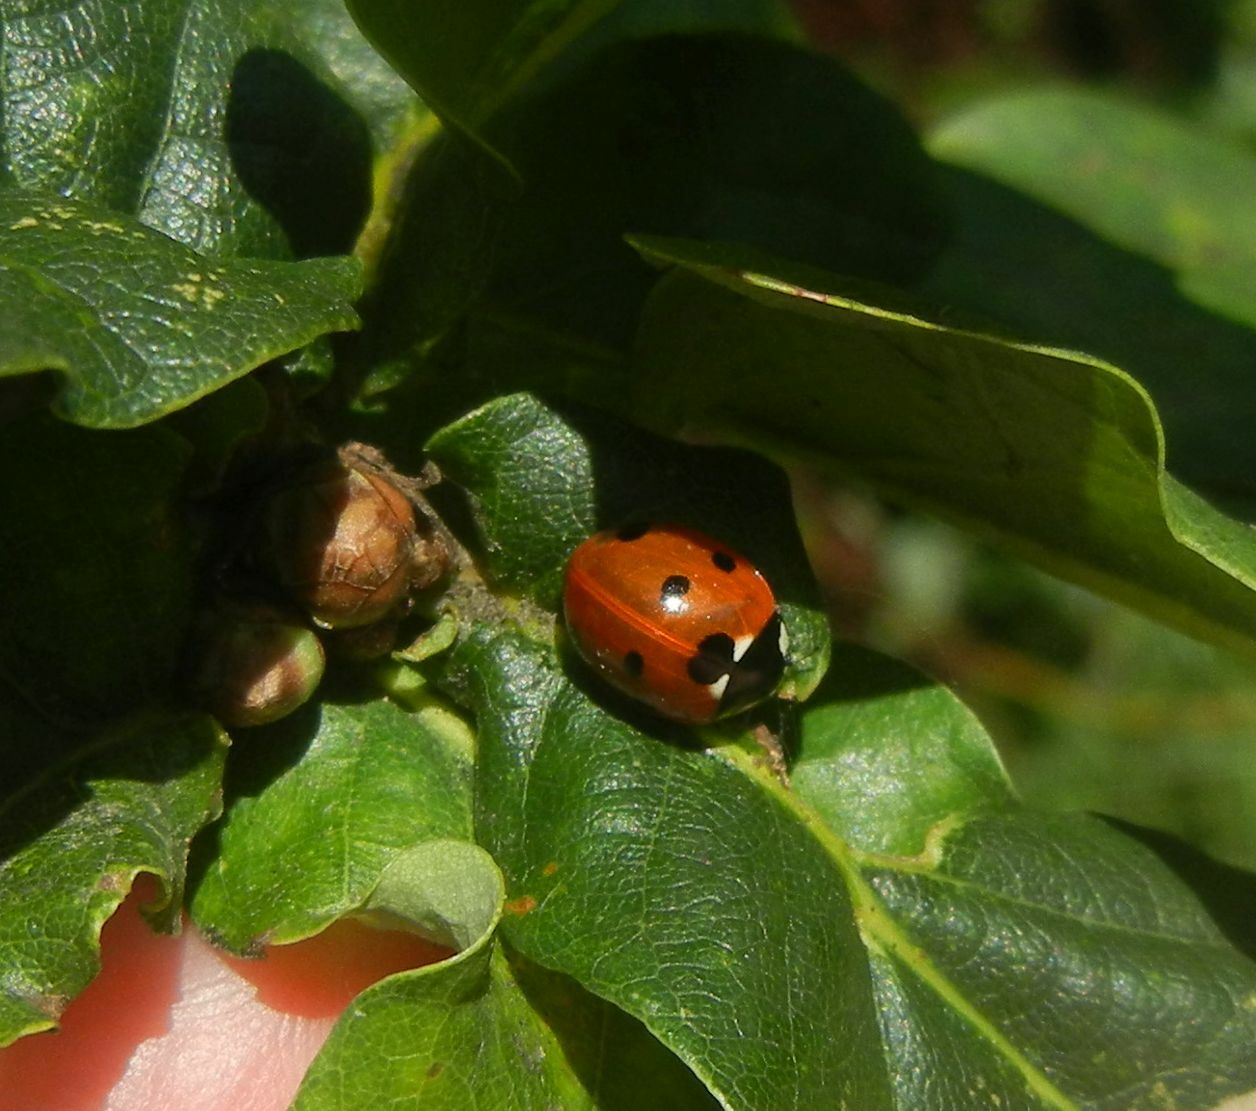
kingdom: Animalia
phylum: Arthropoda
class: Insecta
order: Coleoptera
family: Coccinellidae
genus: Coccinella
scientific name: Coccinella septempunctata
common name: Sevenspotted lady beetle
